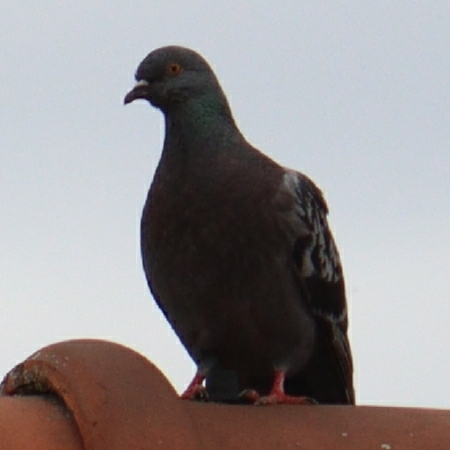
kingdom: Animalia
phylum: Chordata
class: Aves
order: Columbiformes
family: Columbidae
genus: Columba
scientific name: Columba livia
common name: Rock pigeon
